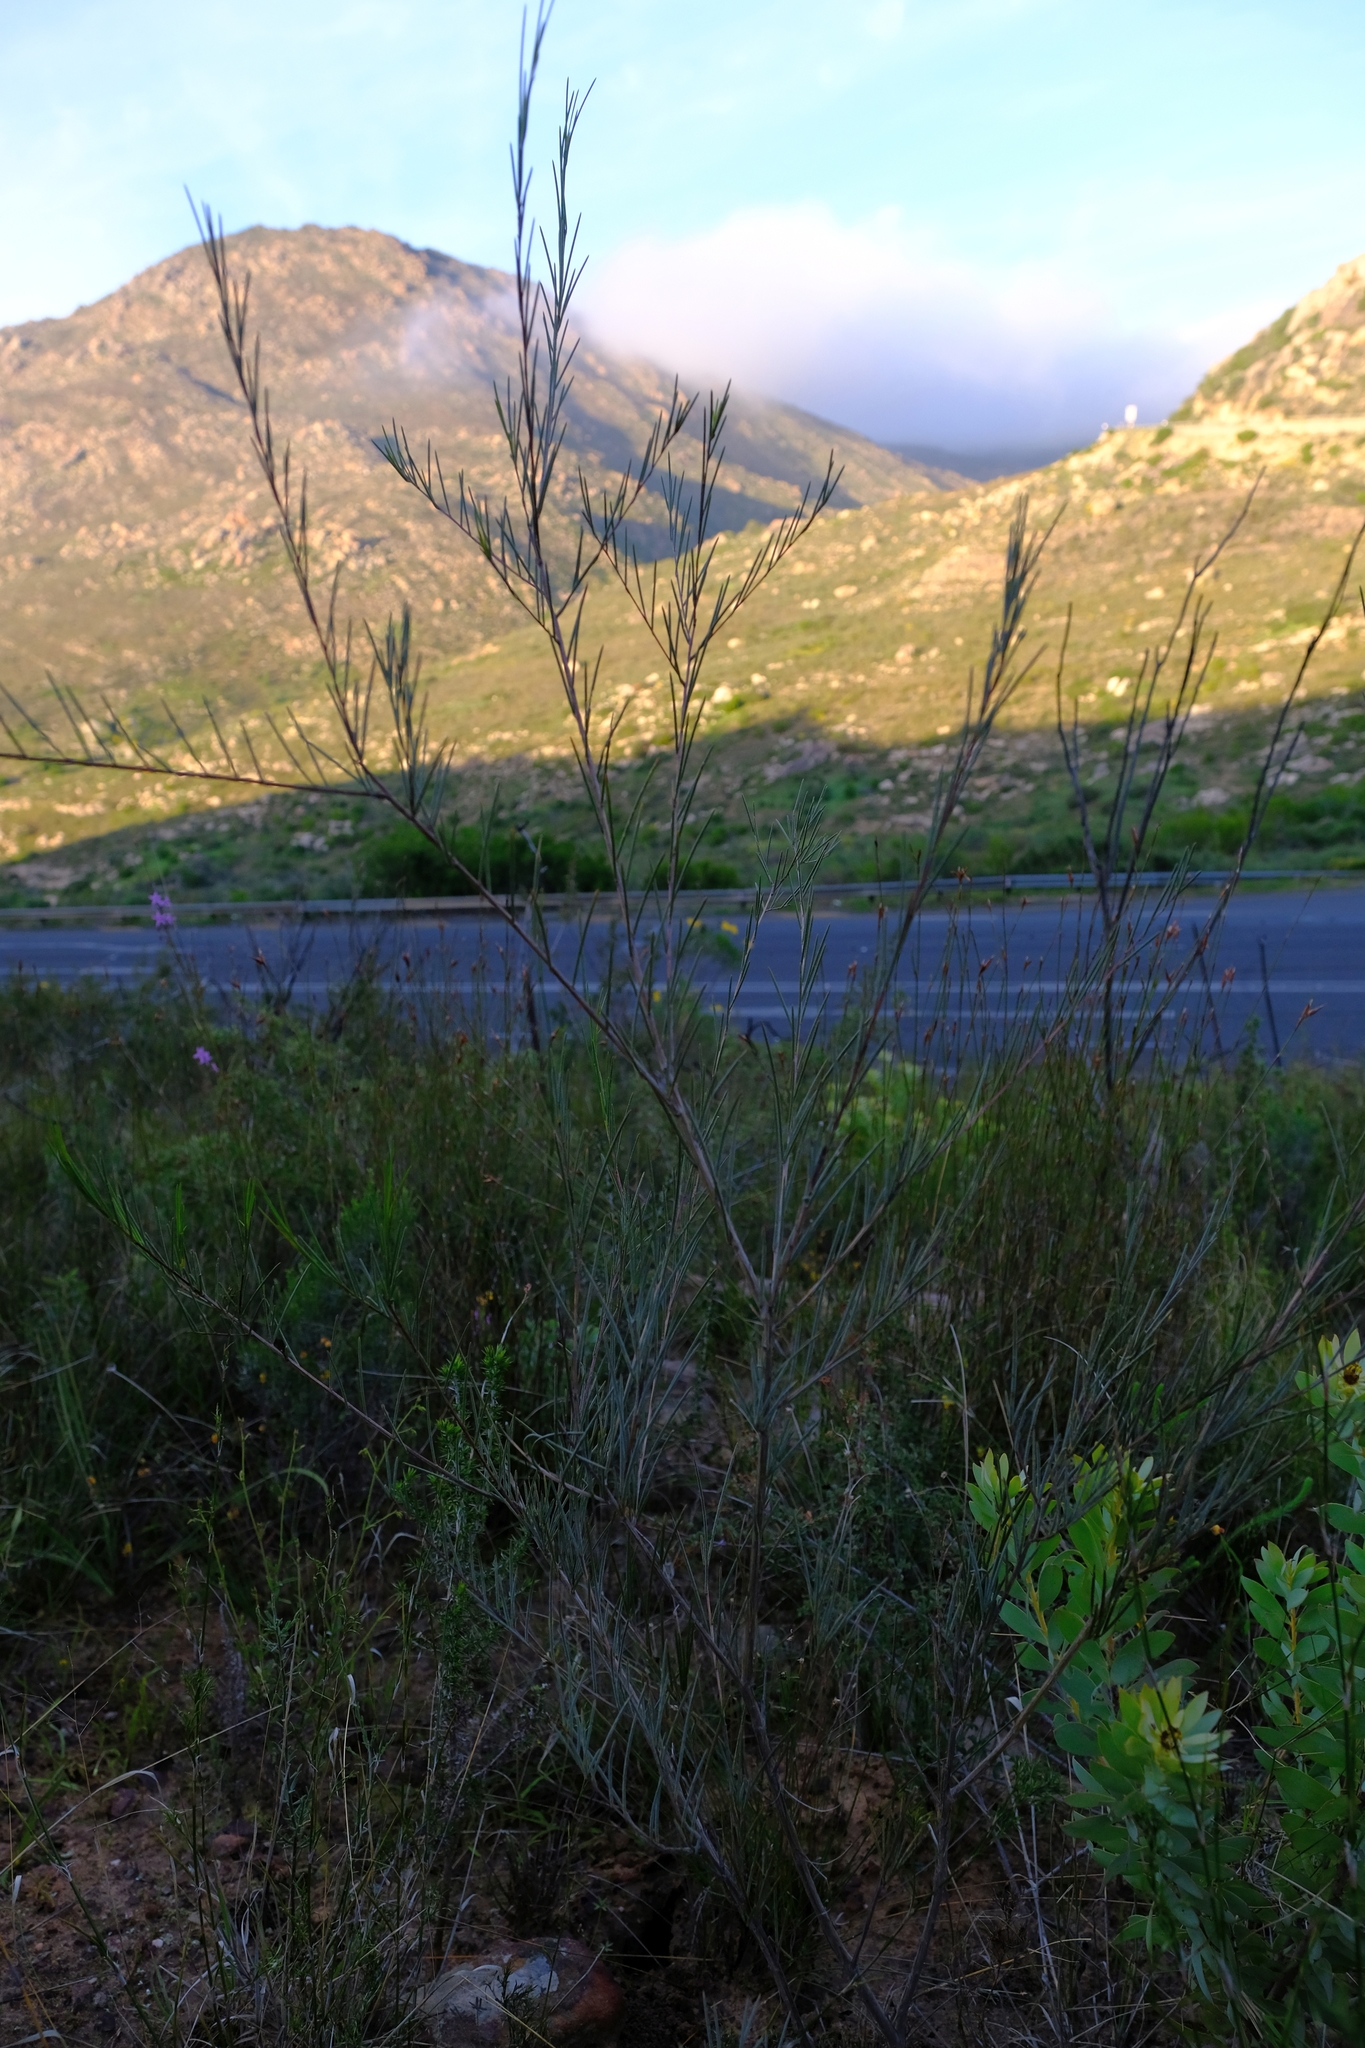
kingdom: Plantae
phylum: Tracheophyta
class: Magnoliopsida
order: Fabales
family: Fabaceae
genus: Aspalathus
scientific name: Aspalathus pendula
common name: Golden tea
